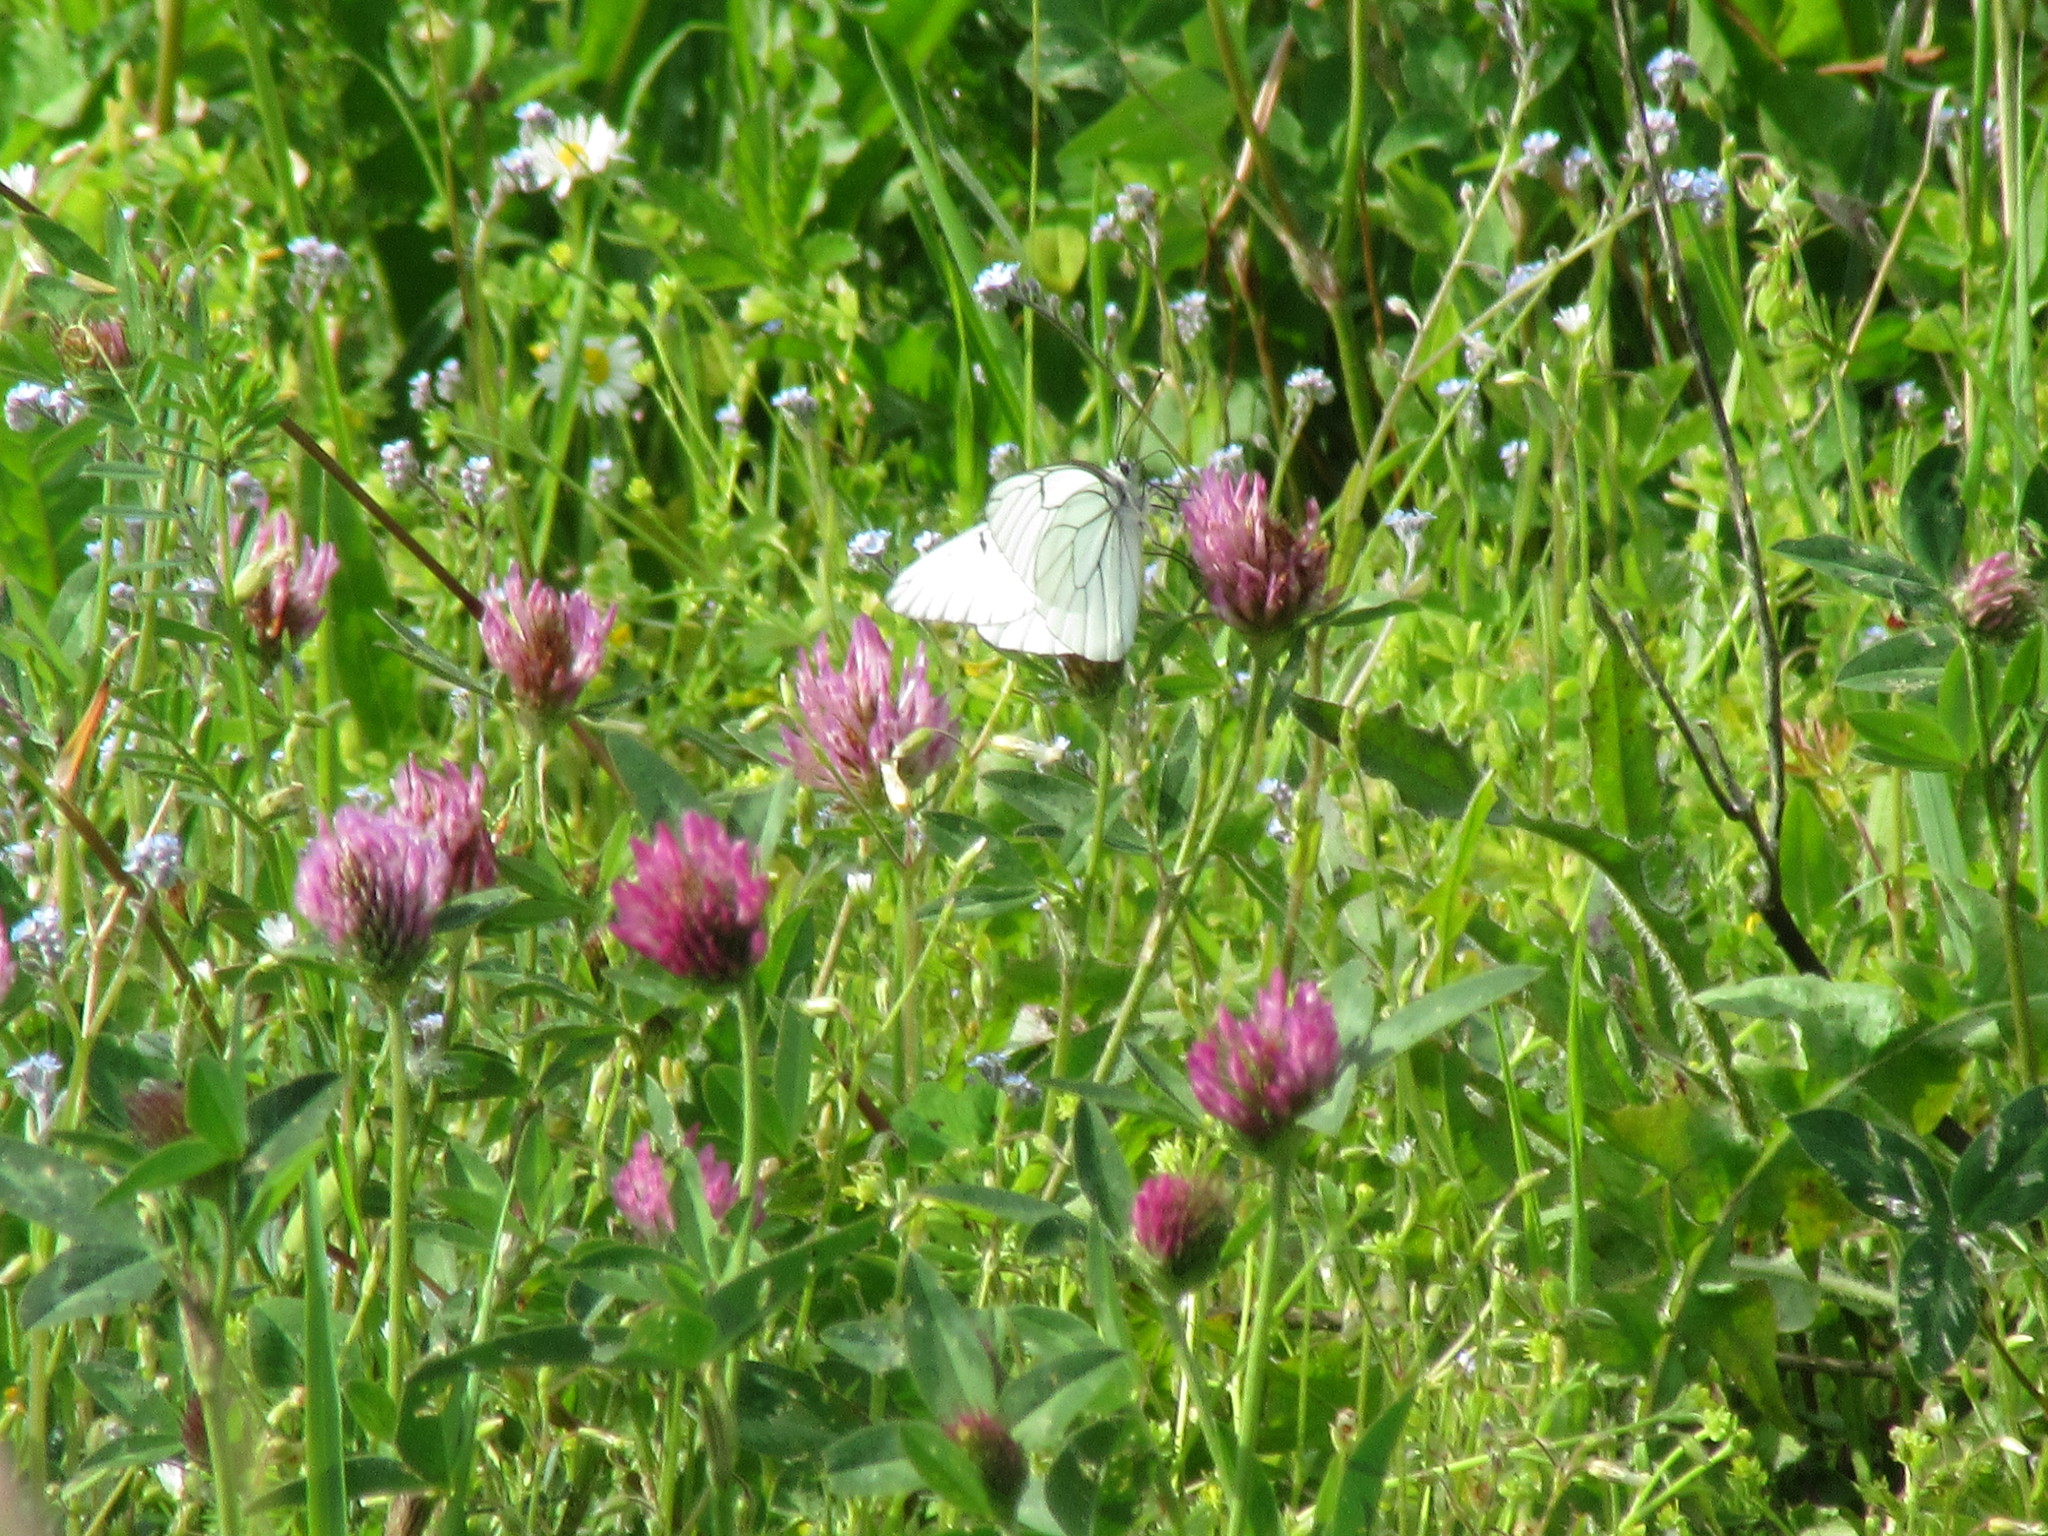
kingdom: Animalia
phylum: Arthropoda
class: Insecta
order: Lepidoptera
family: Pieridae
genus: Aporia
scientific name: Aporia crataegi
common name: Black-veined white
